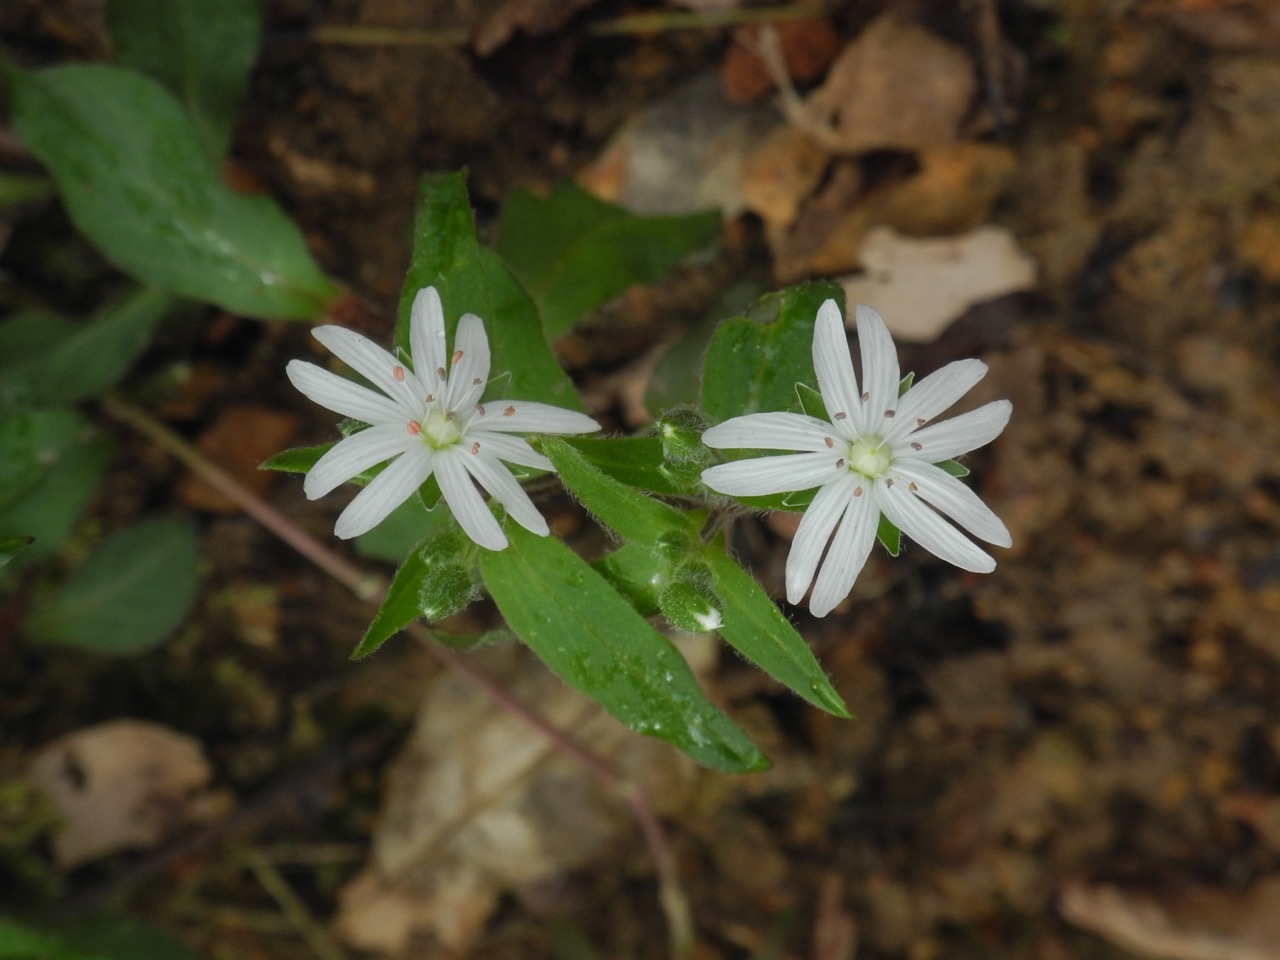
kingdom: Plantae
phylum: Tracheophyta
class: Magnoliopsida
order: Caryophyllales
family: Caryophyllaceae
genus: Stellaria
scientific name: Stellaria pubera
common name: Star chickweed
